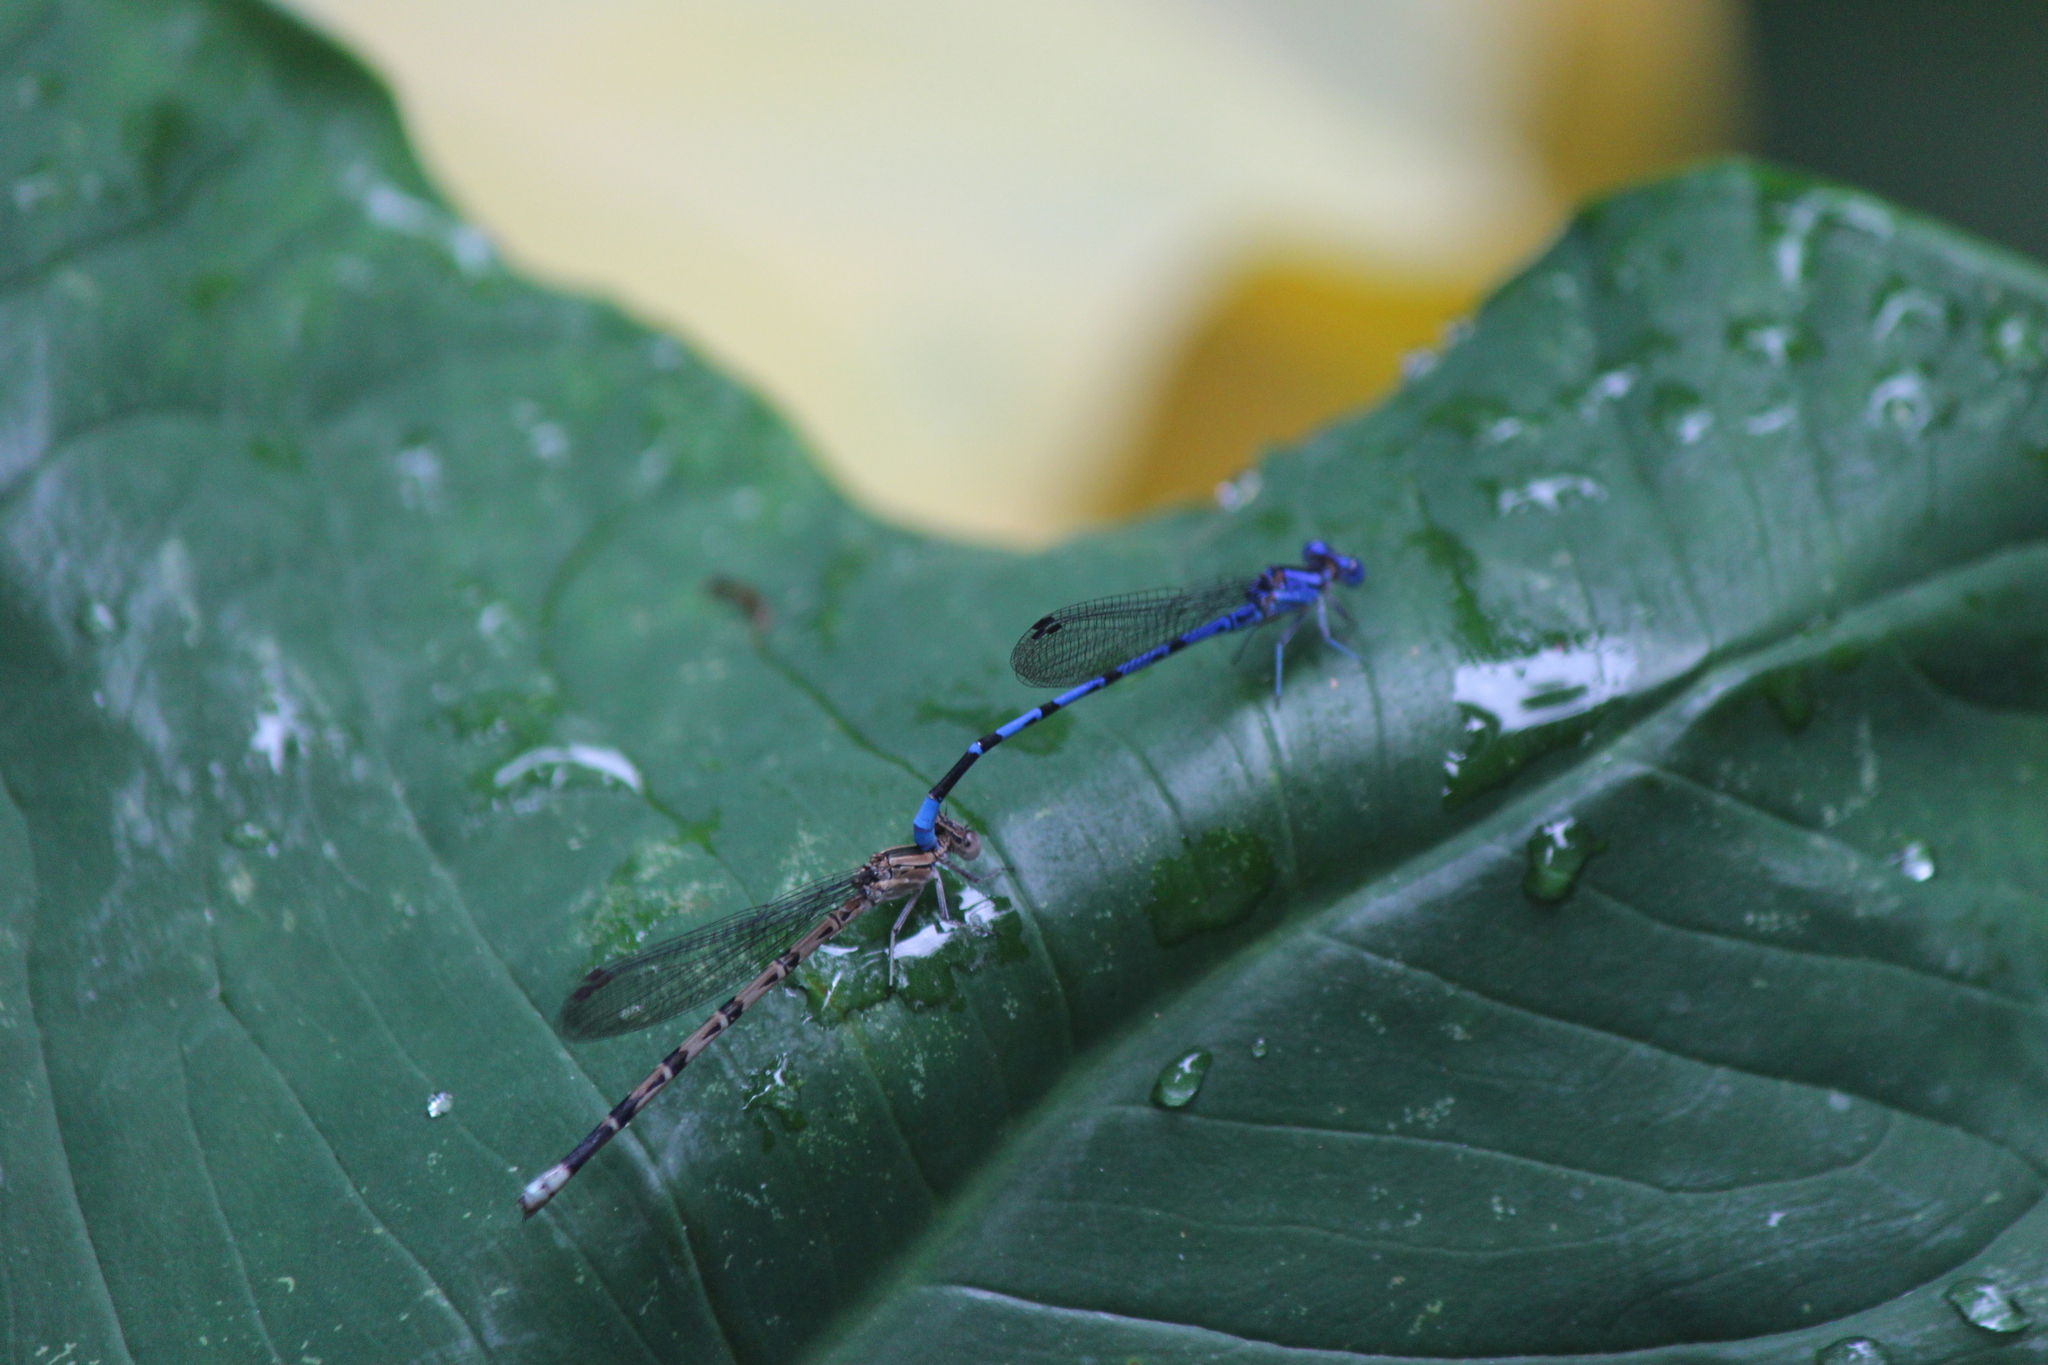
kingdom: Animalia
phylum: Arthropoda
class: Insecta
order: Odonata
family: Coenagrionidae
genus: Argia
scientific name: Argia vivida
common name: Vivid dancer
